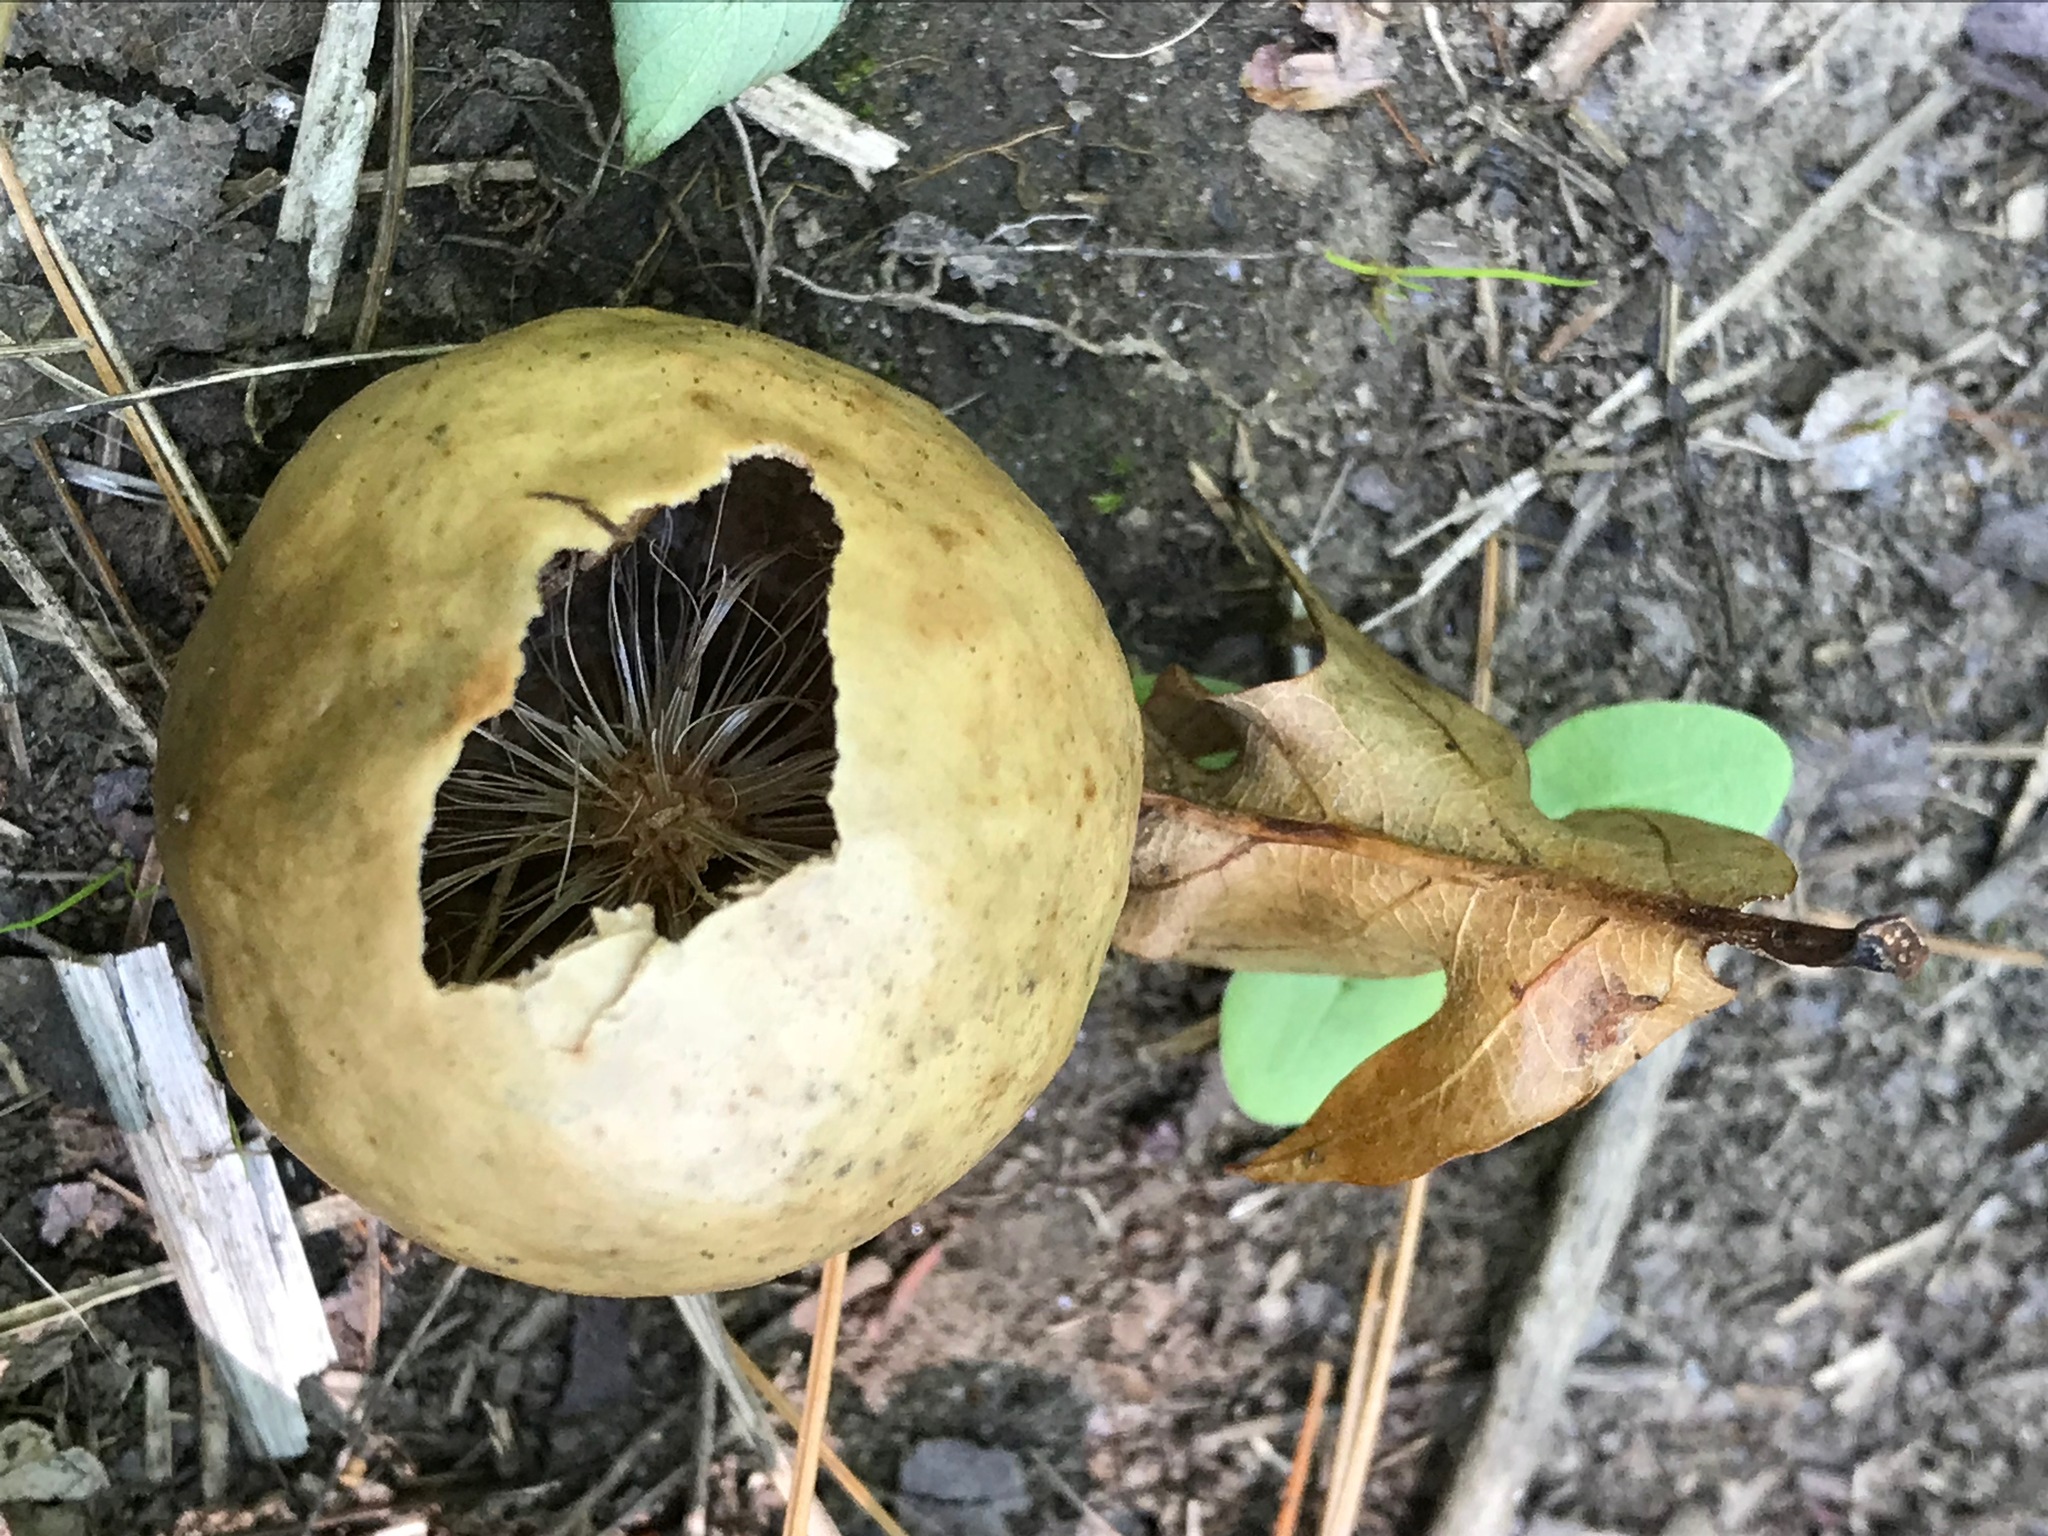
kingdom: Animalia
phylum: Arthropoda
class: Insecta
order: Hymenoptera
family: Cynipidae
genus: Amphibolips
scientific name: Amphibolips
